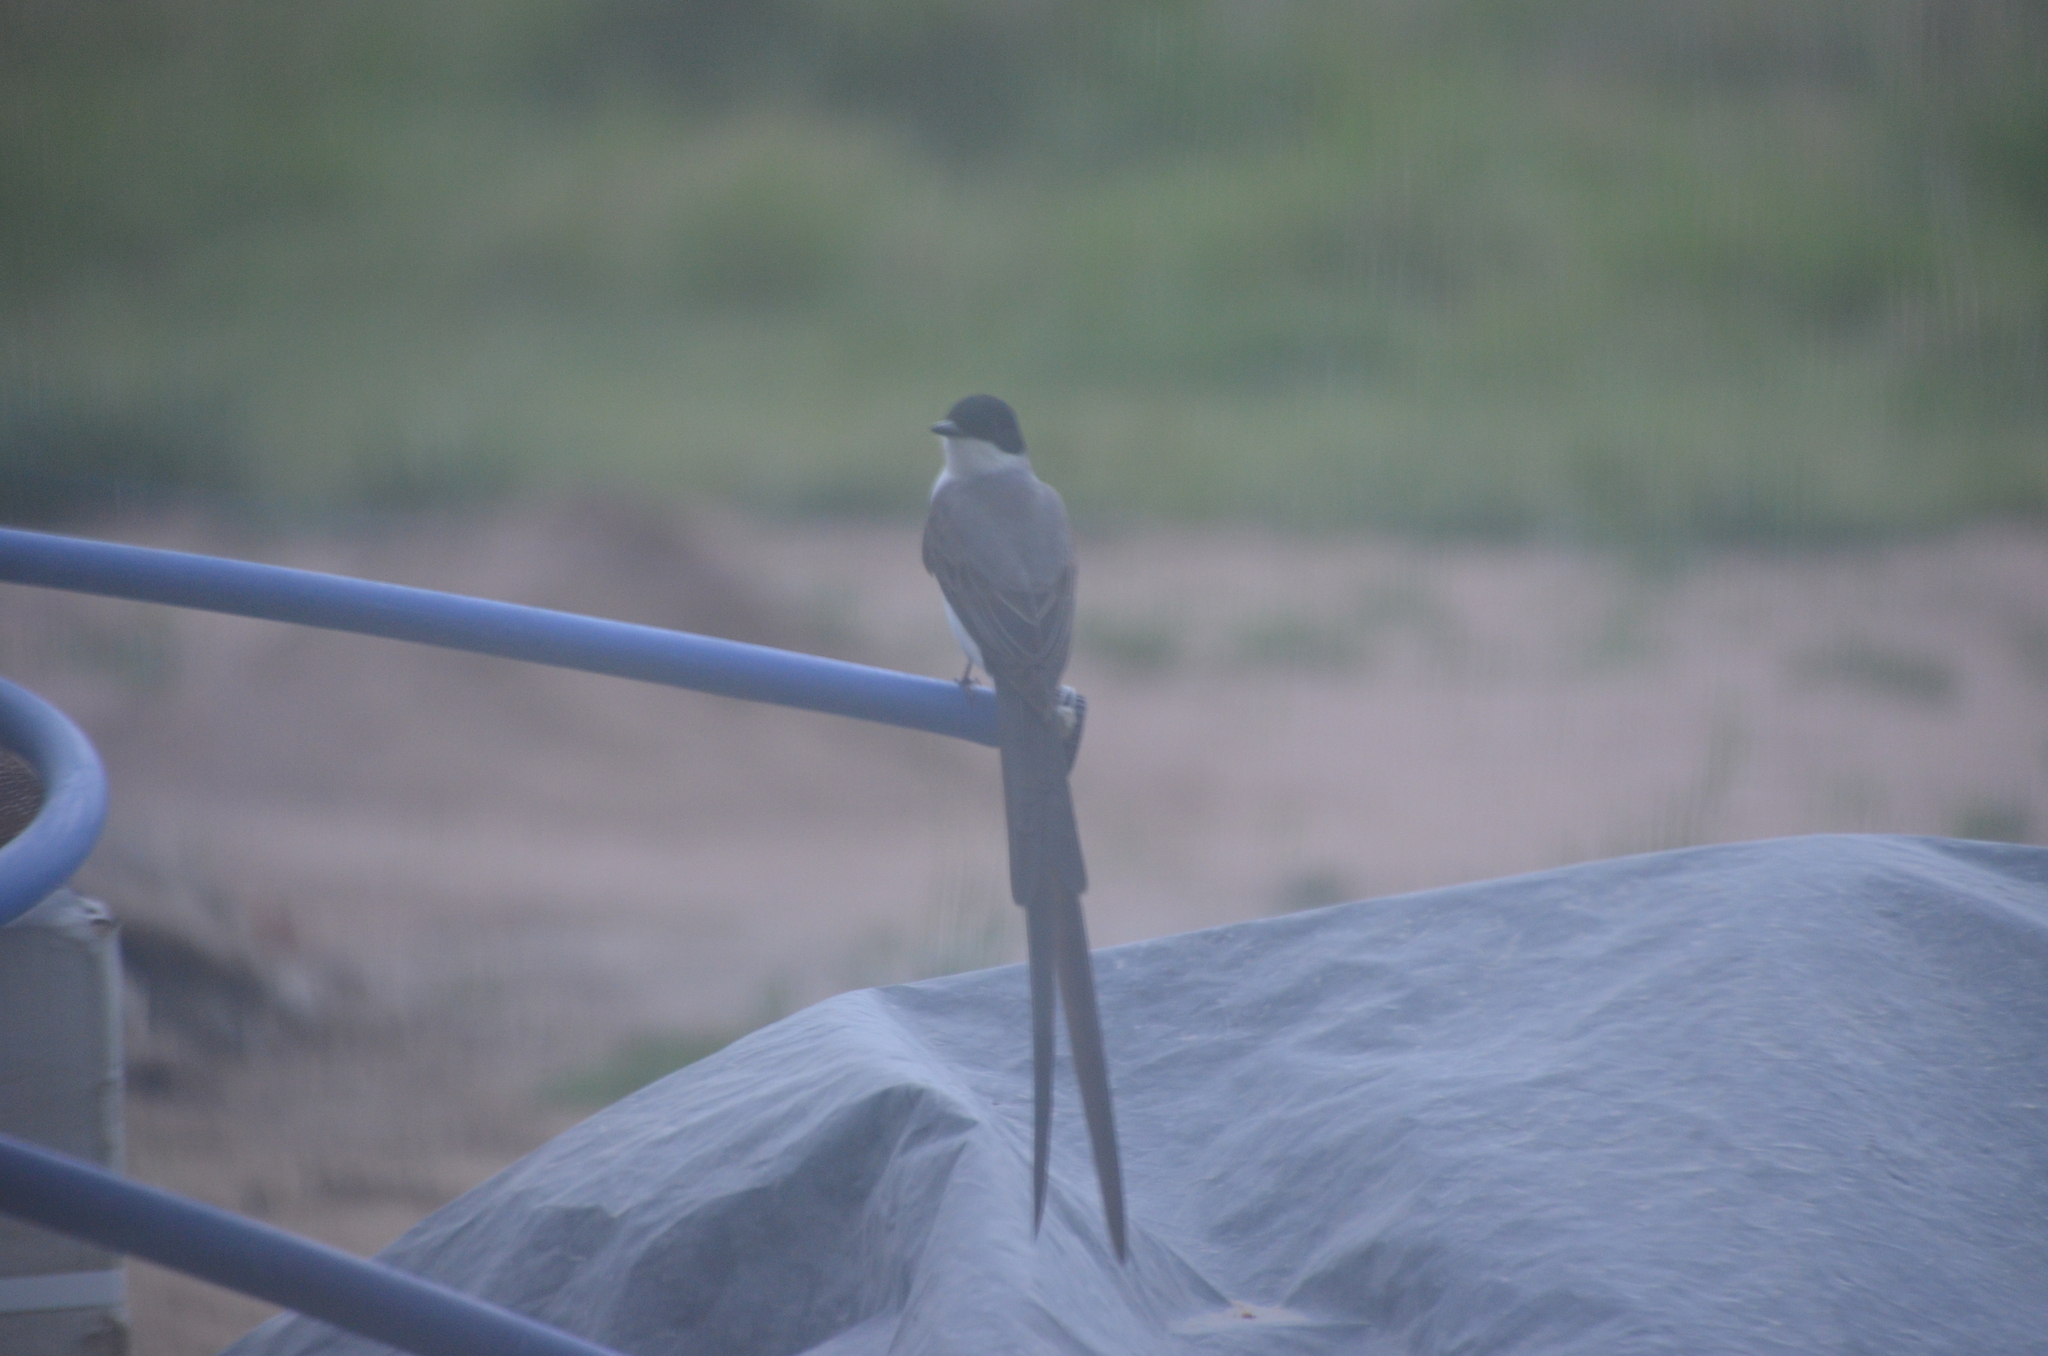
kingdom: Animalia
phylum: Chordata
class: Aves
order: Passeriformes
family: Tyrannidae
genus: Tyrannus
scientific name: Tyrannus savana
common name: Fork-tailed flycatcher
